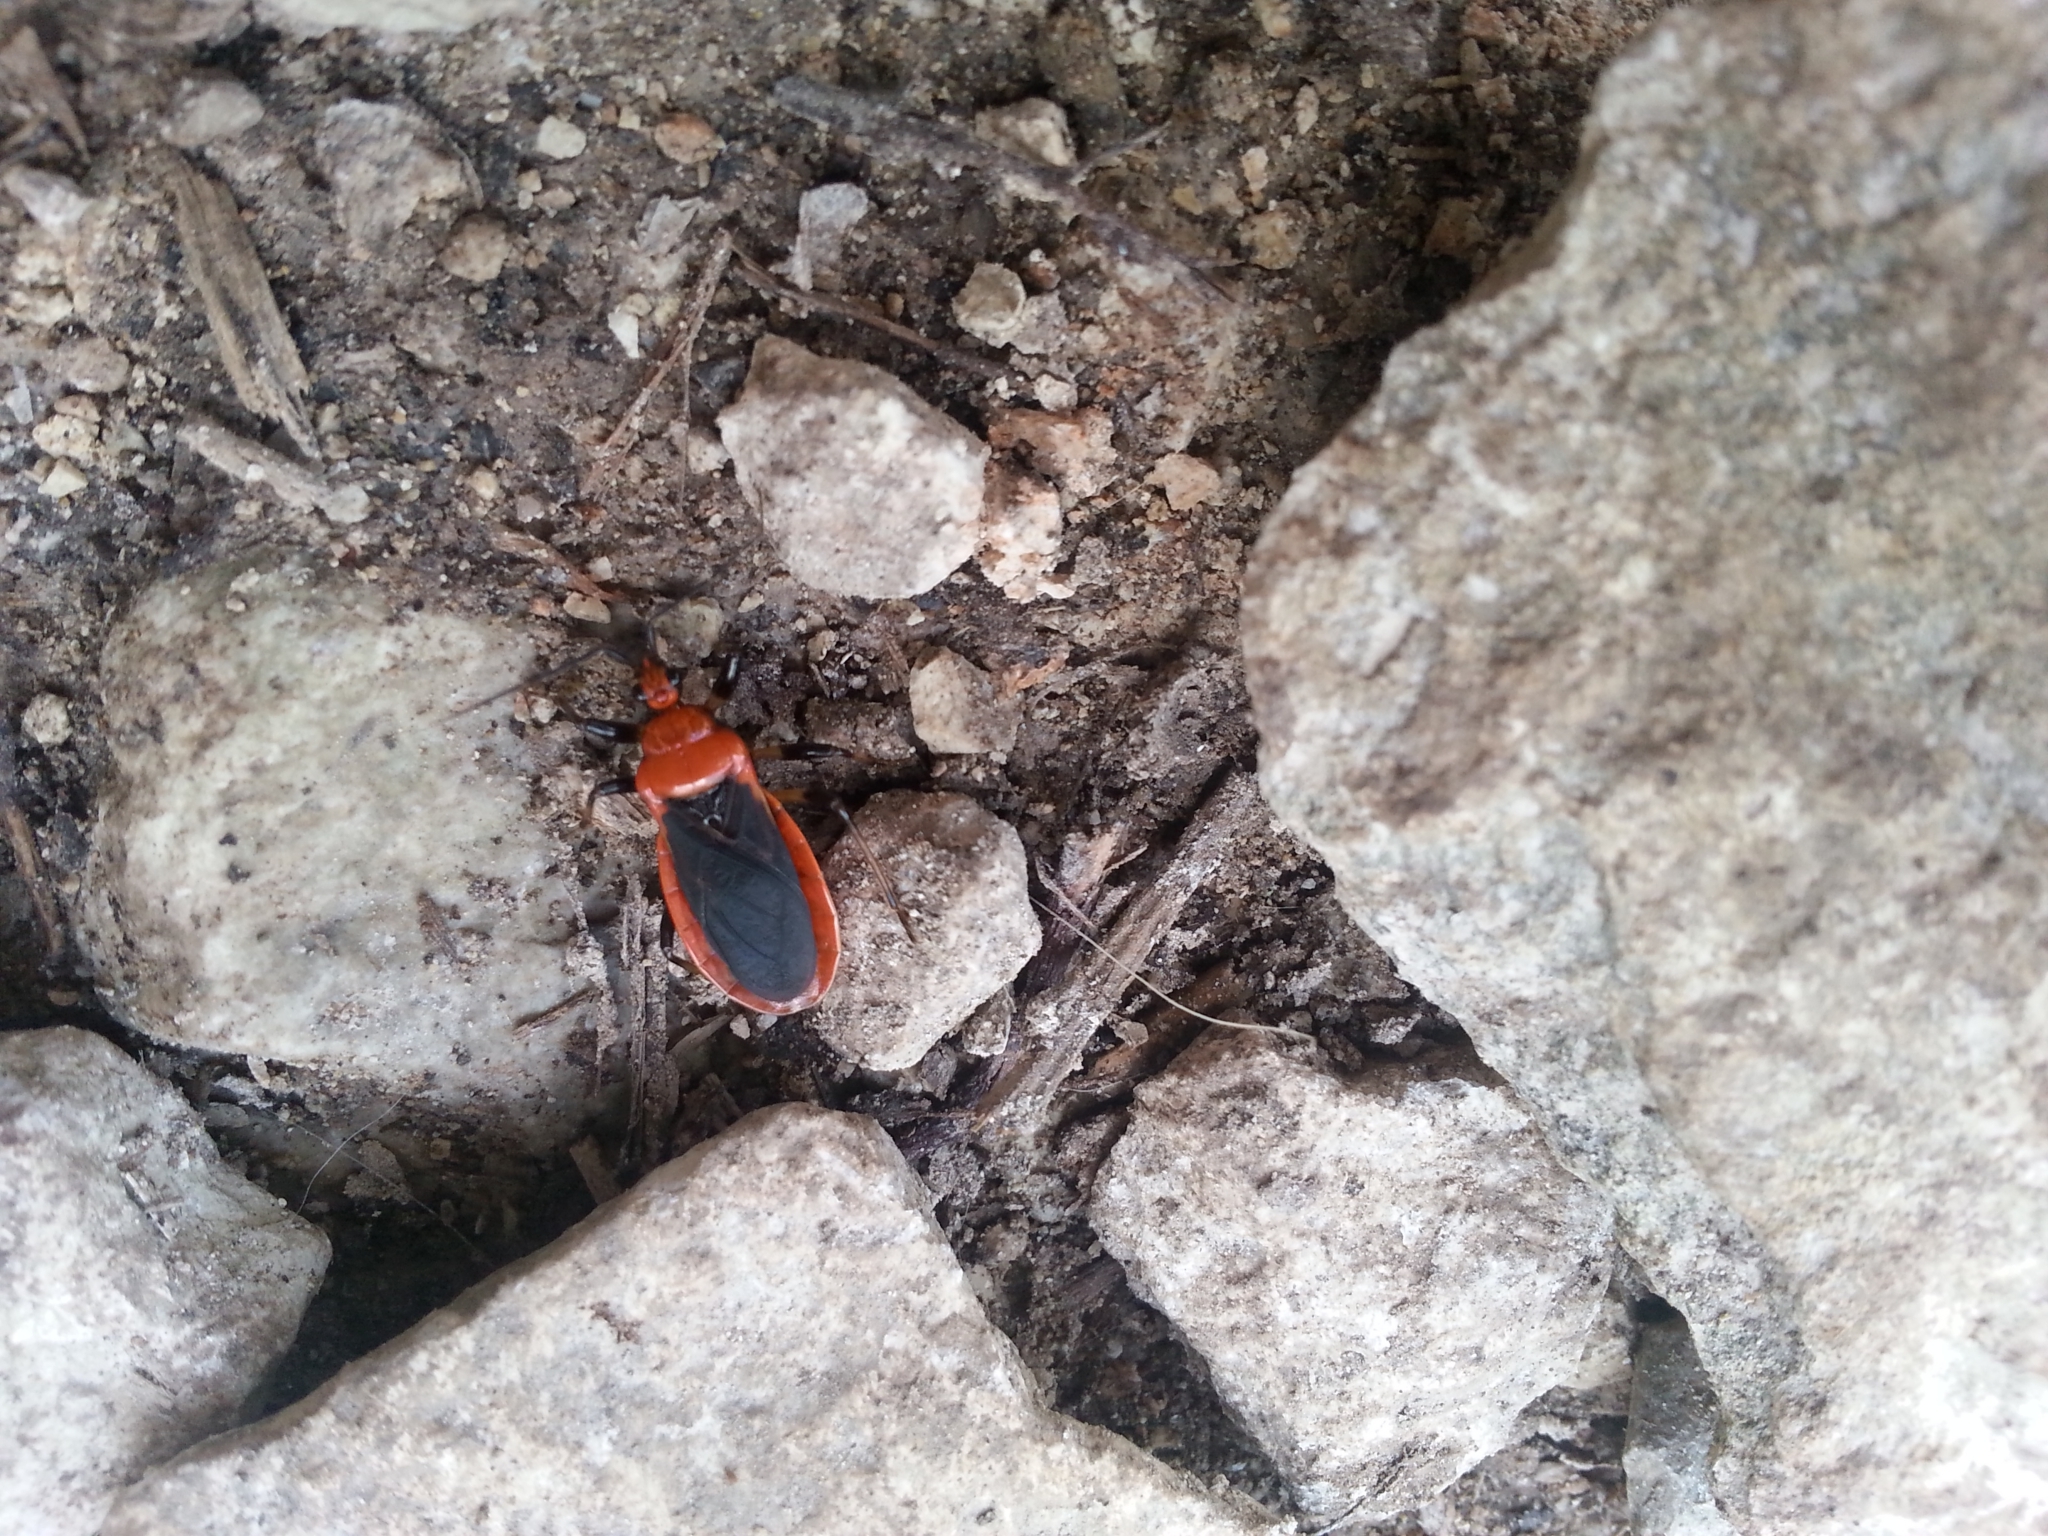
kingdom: Animalia
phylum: Arthropoda
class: Insecta
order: Hemiptera
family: Reduviidae
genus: Rhiginia
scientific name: Rhiginia cruciata
